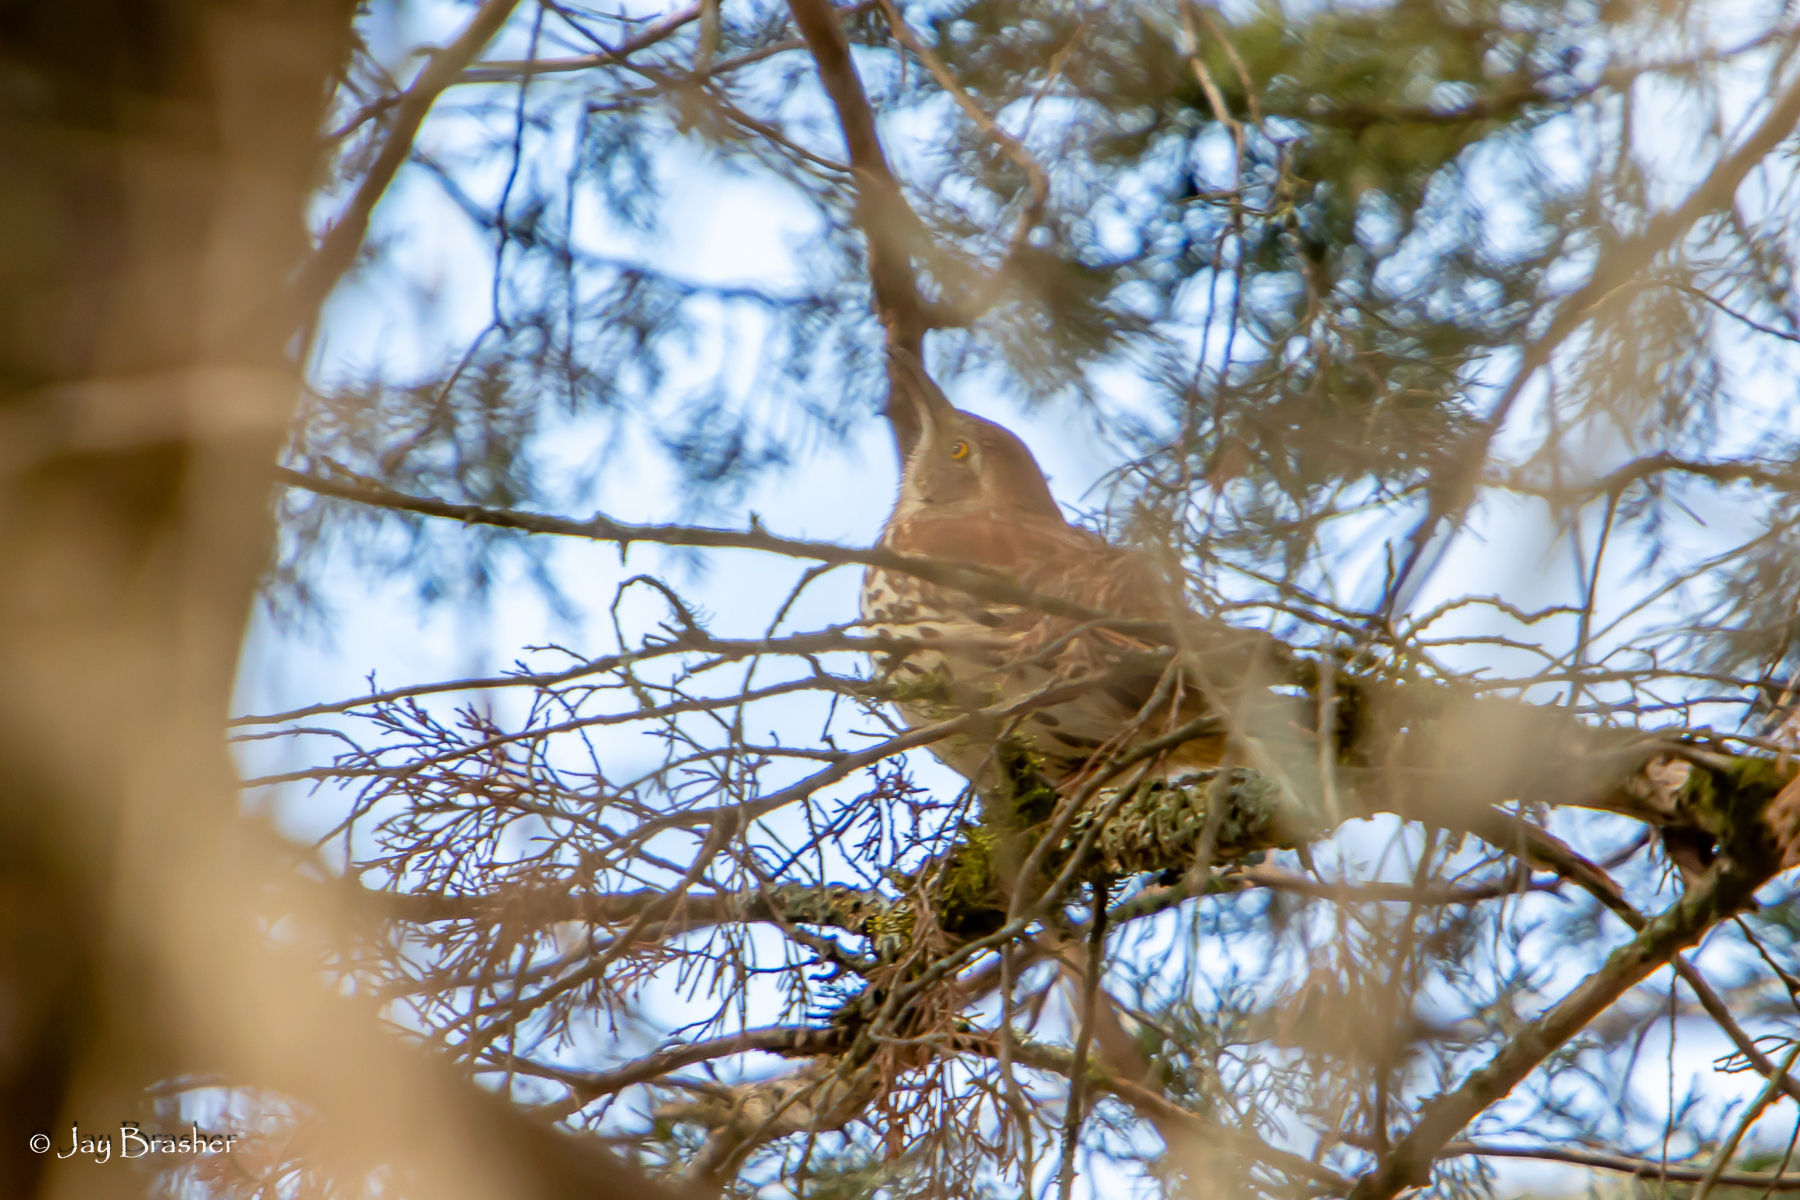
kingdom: Animalia
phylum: Chordata
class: Aves
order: Passeriformes
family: Mimidae
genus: Toxostoma
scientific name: Toxostoma rufum
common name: Brown thrasher
